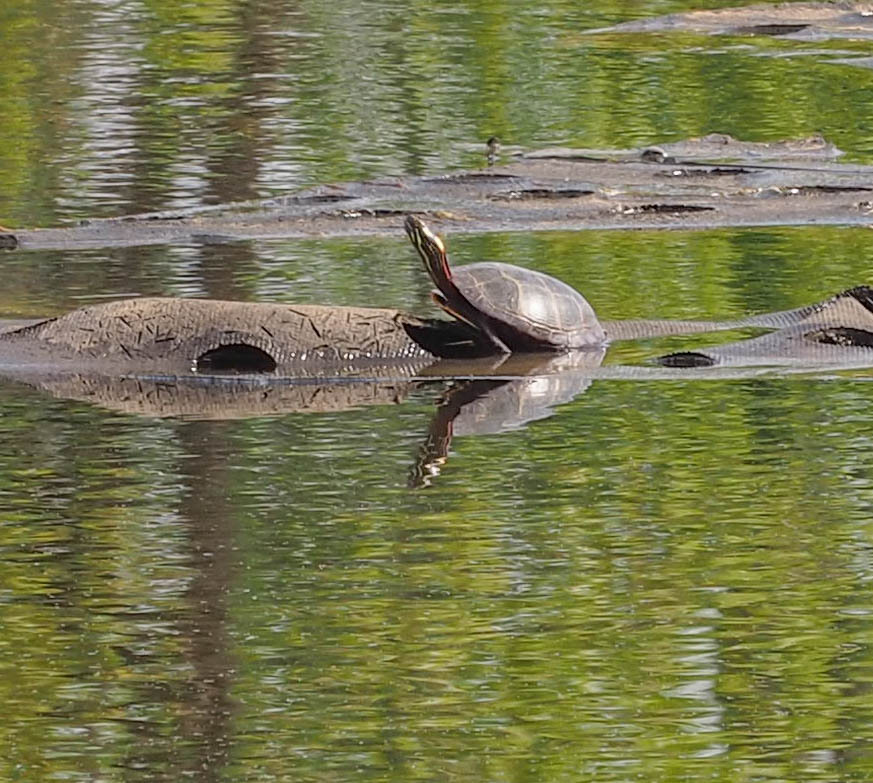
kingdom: Animalia
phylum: Chordata
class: Testudines
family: Emydidae
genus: Chrysemys
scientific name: Chrysemys picta
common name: Painted turtle
